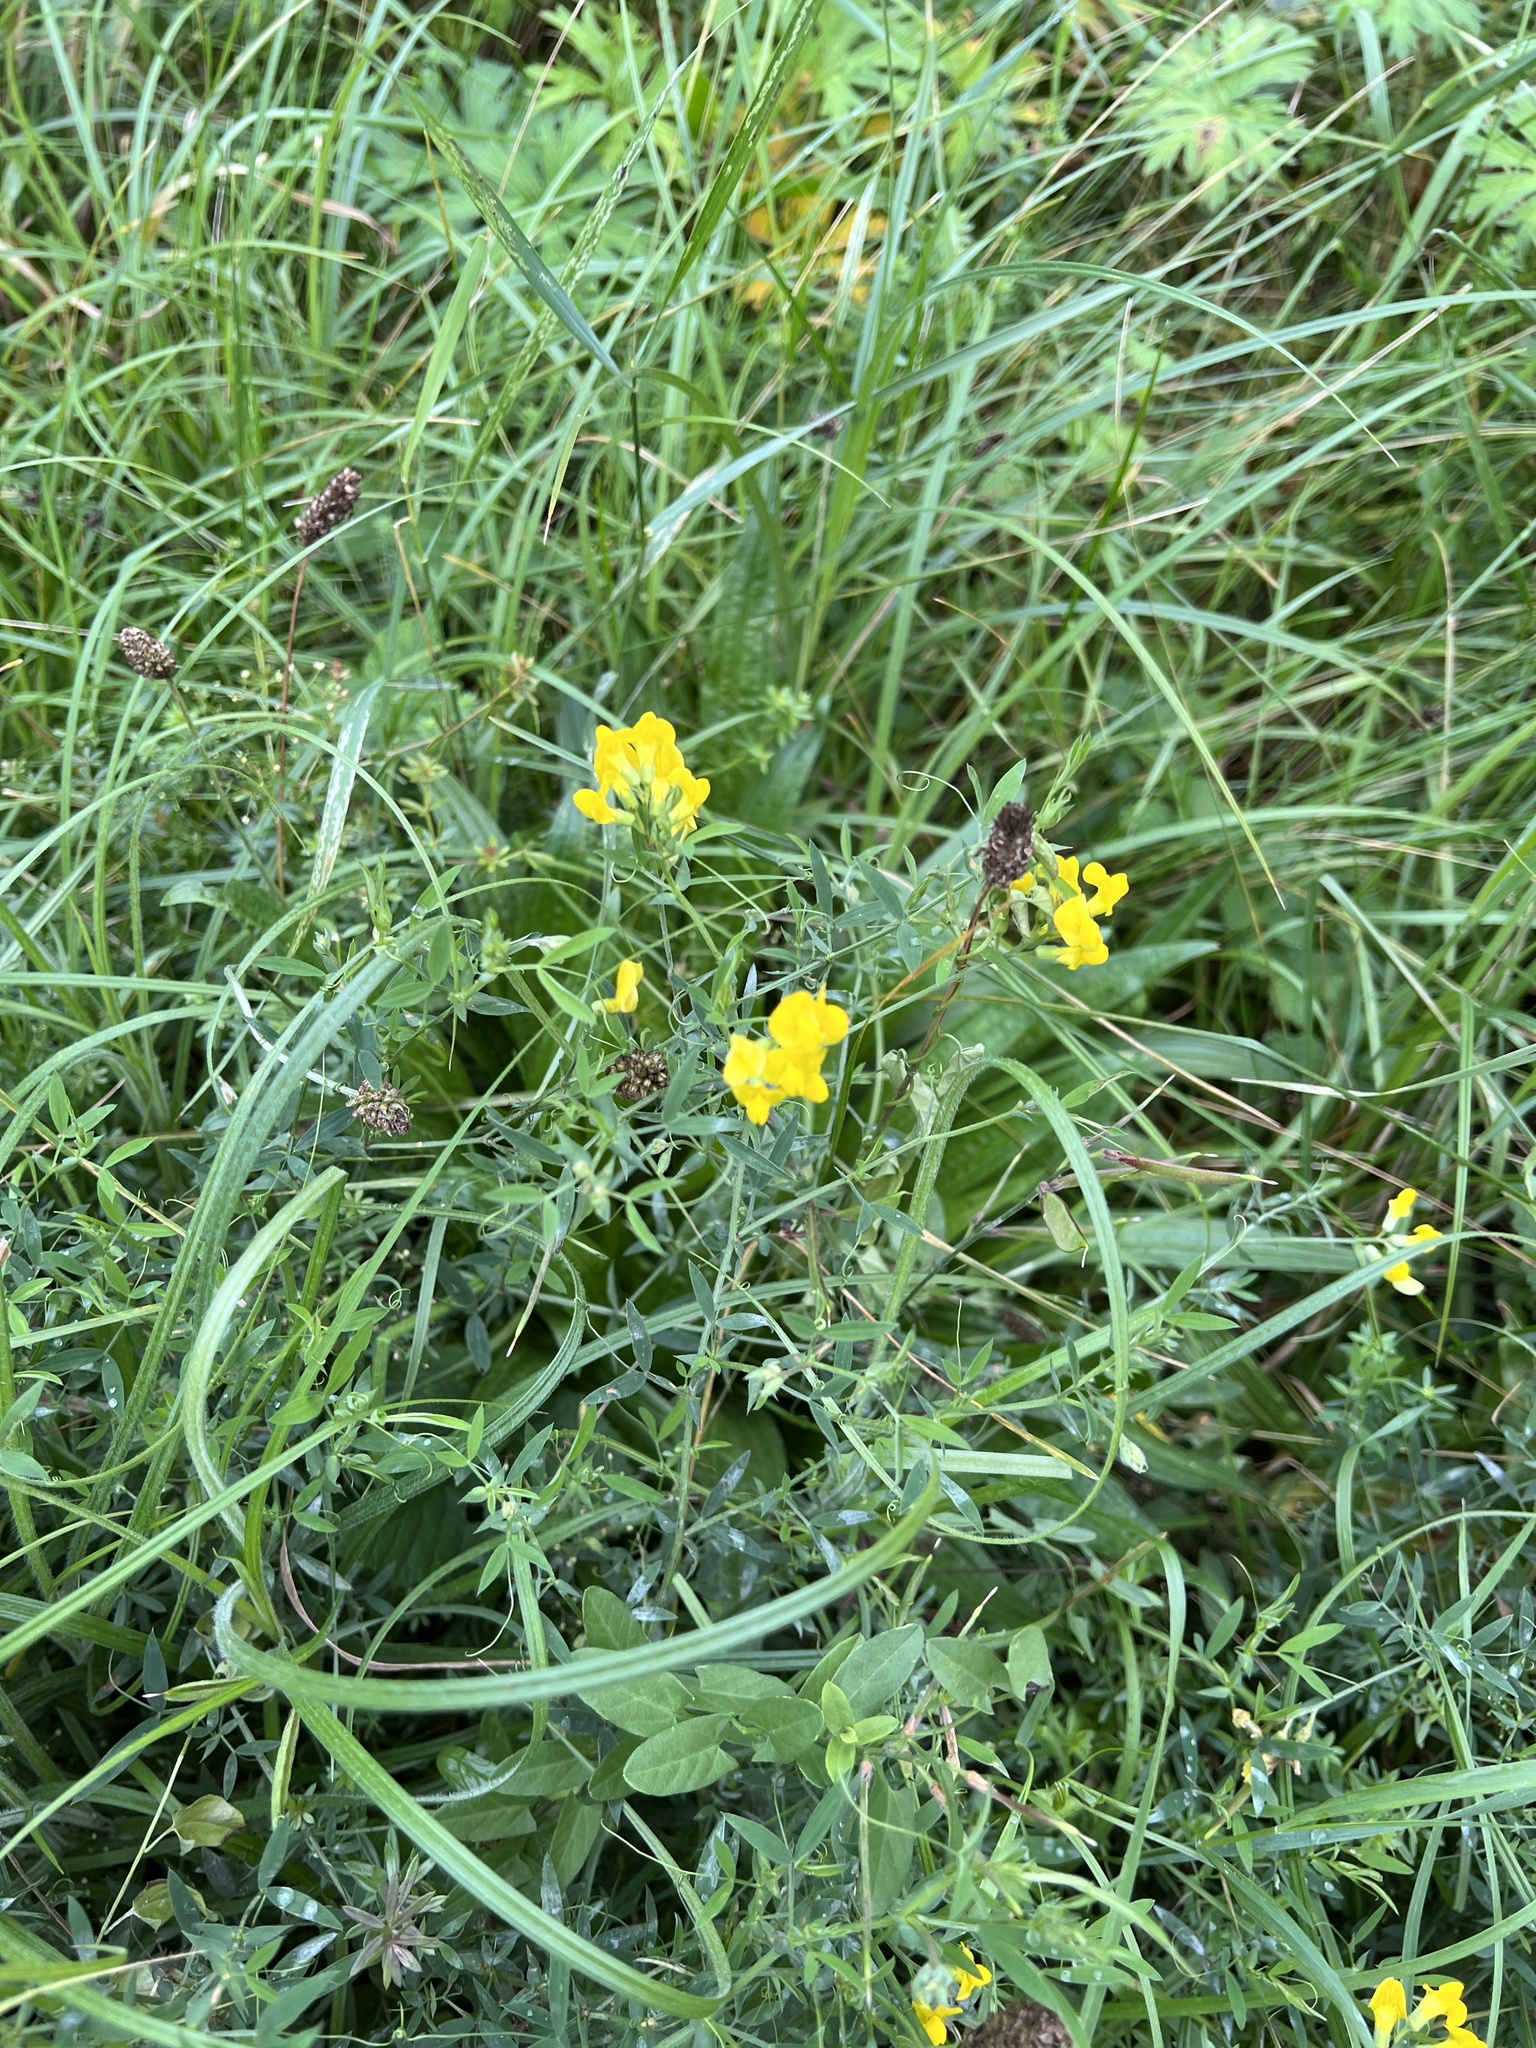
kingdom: Plantae
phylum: Tracheophyta
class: Magnoliopsida
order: Fabales
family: Fabaceae
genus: Lathyrus
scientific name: Lathyrus pratensis
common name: Meadow vetchling
